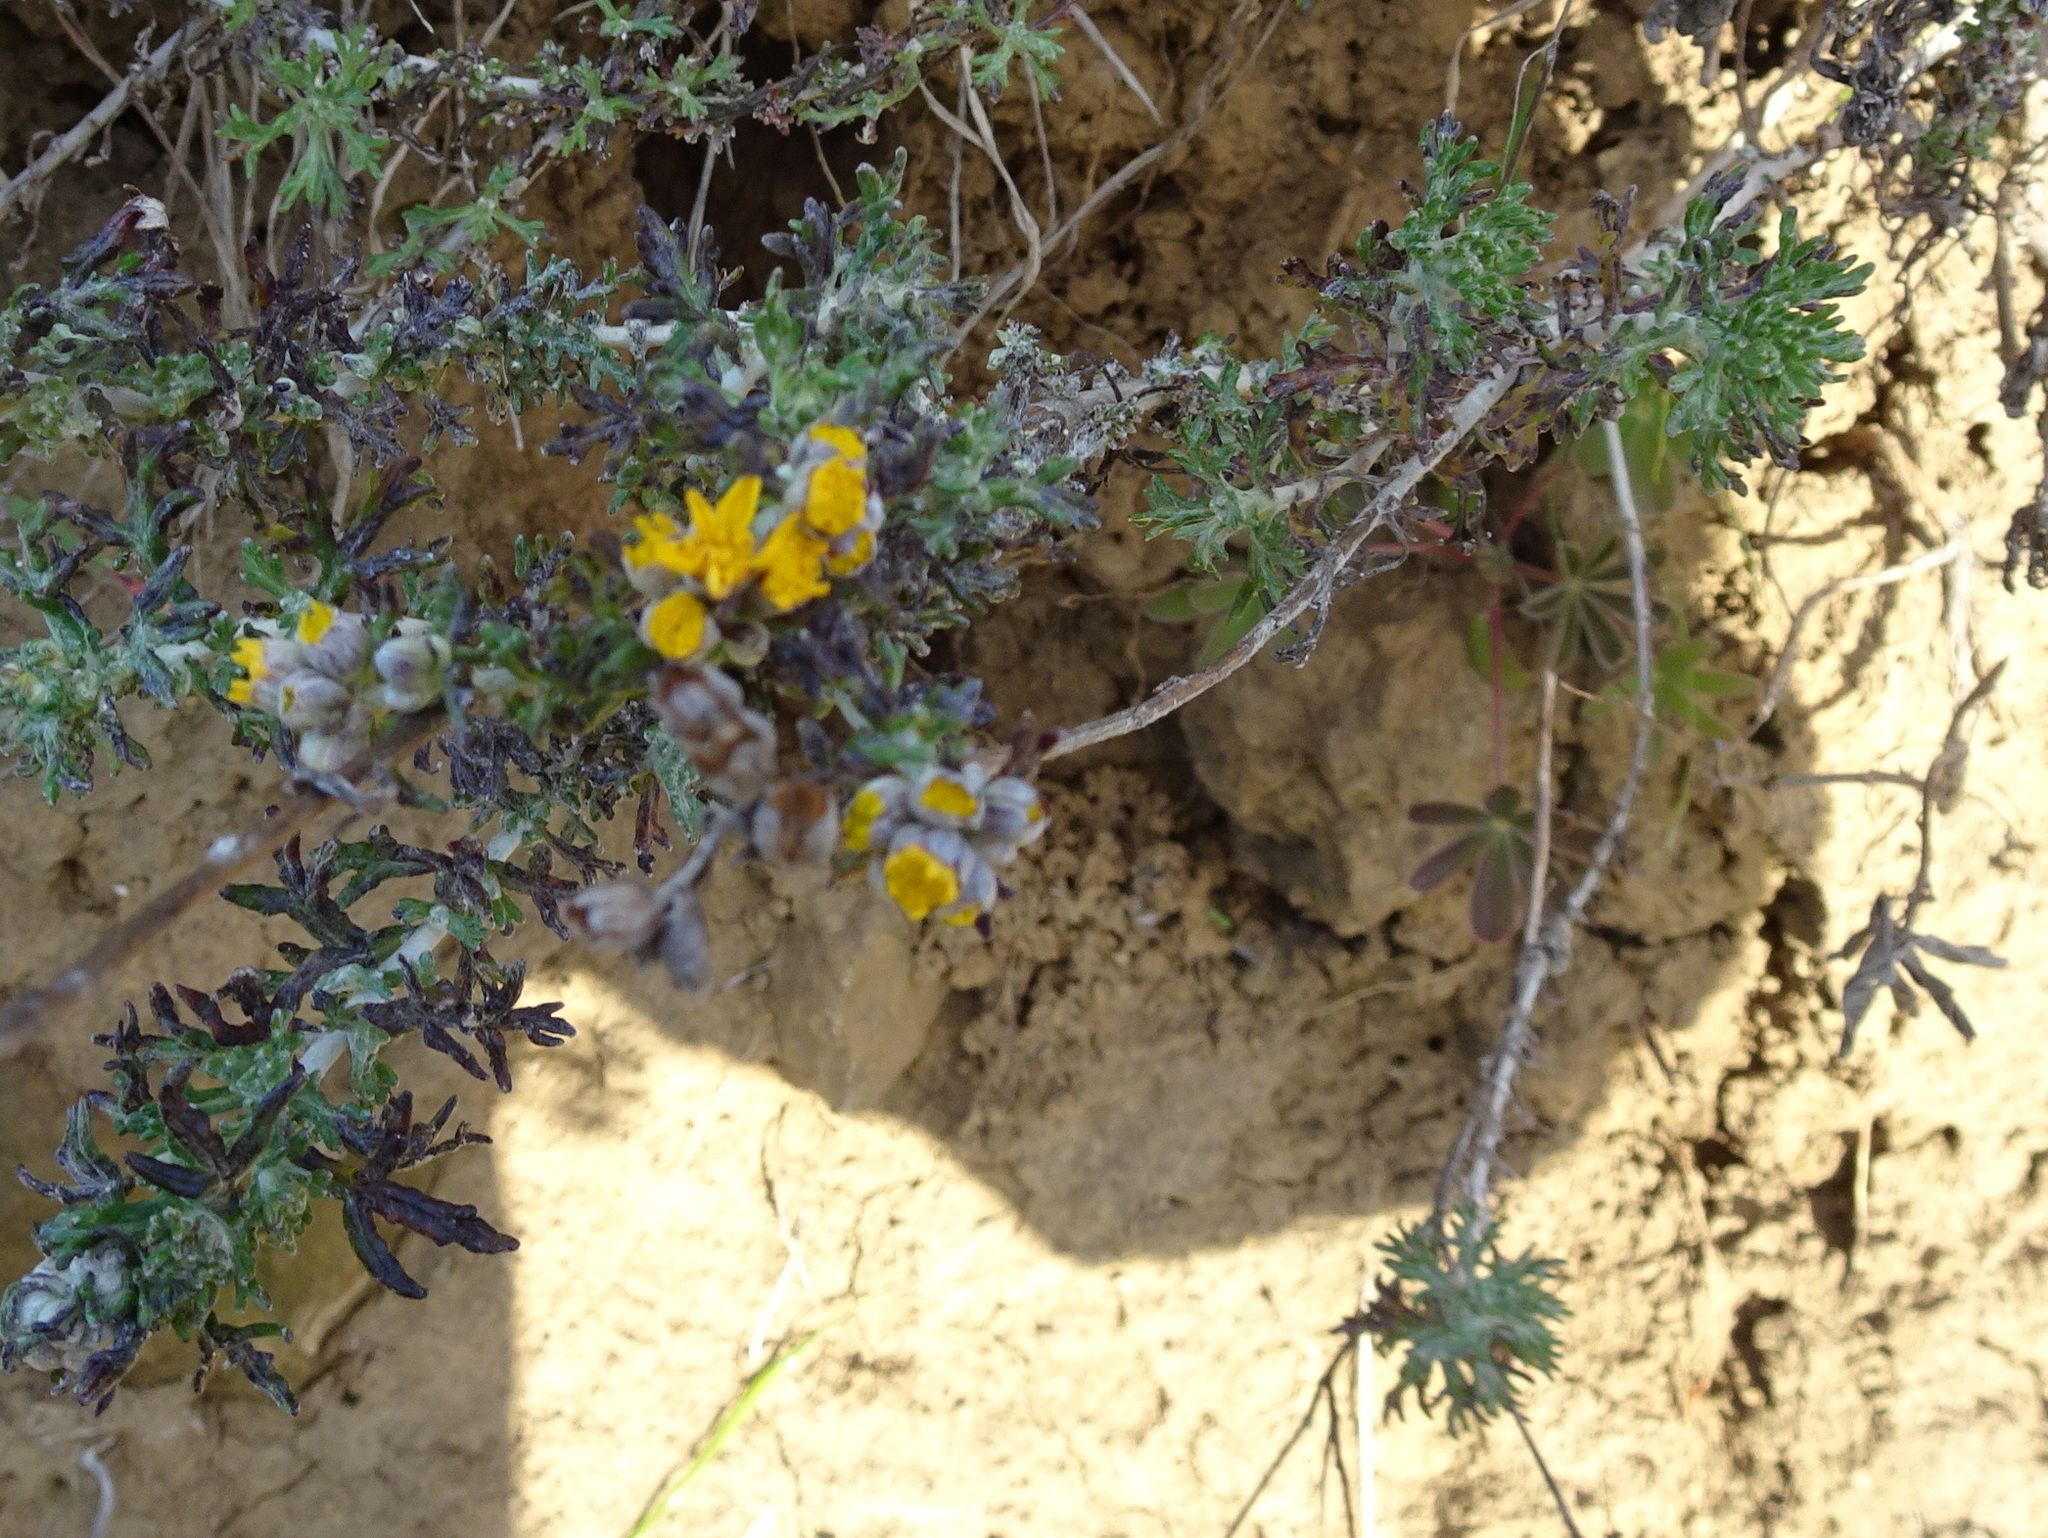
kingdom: Plantae
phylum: Tracheophyta
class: Magnoliopsida
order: Asterales
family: Asteraceae
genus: Eriophyllum
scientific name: Eriophyllum confertiflorum
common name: Golden-yarrow
